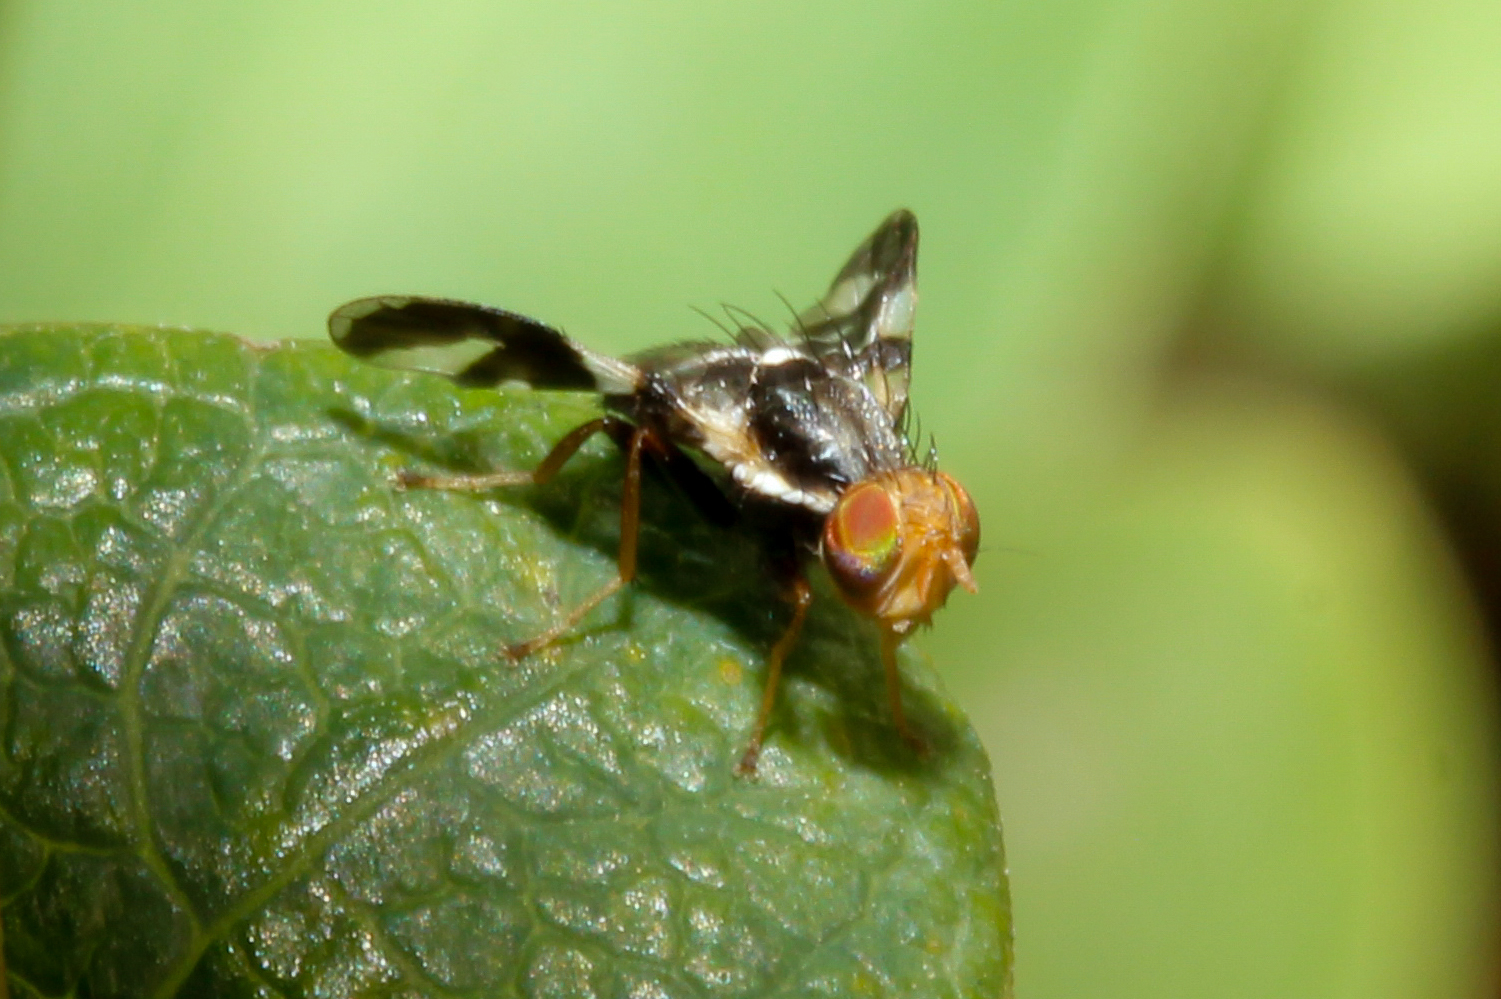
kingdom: Animalia
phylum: Arthropoda
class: Insecta
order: Diptera
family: Tephritidae
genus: Rhagoletis
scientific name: Rhagoletis zephyria
